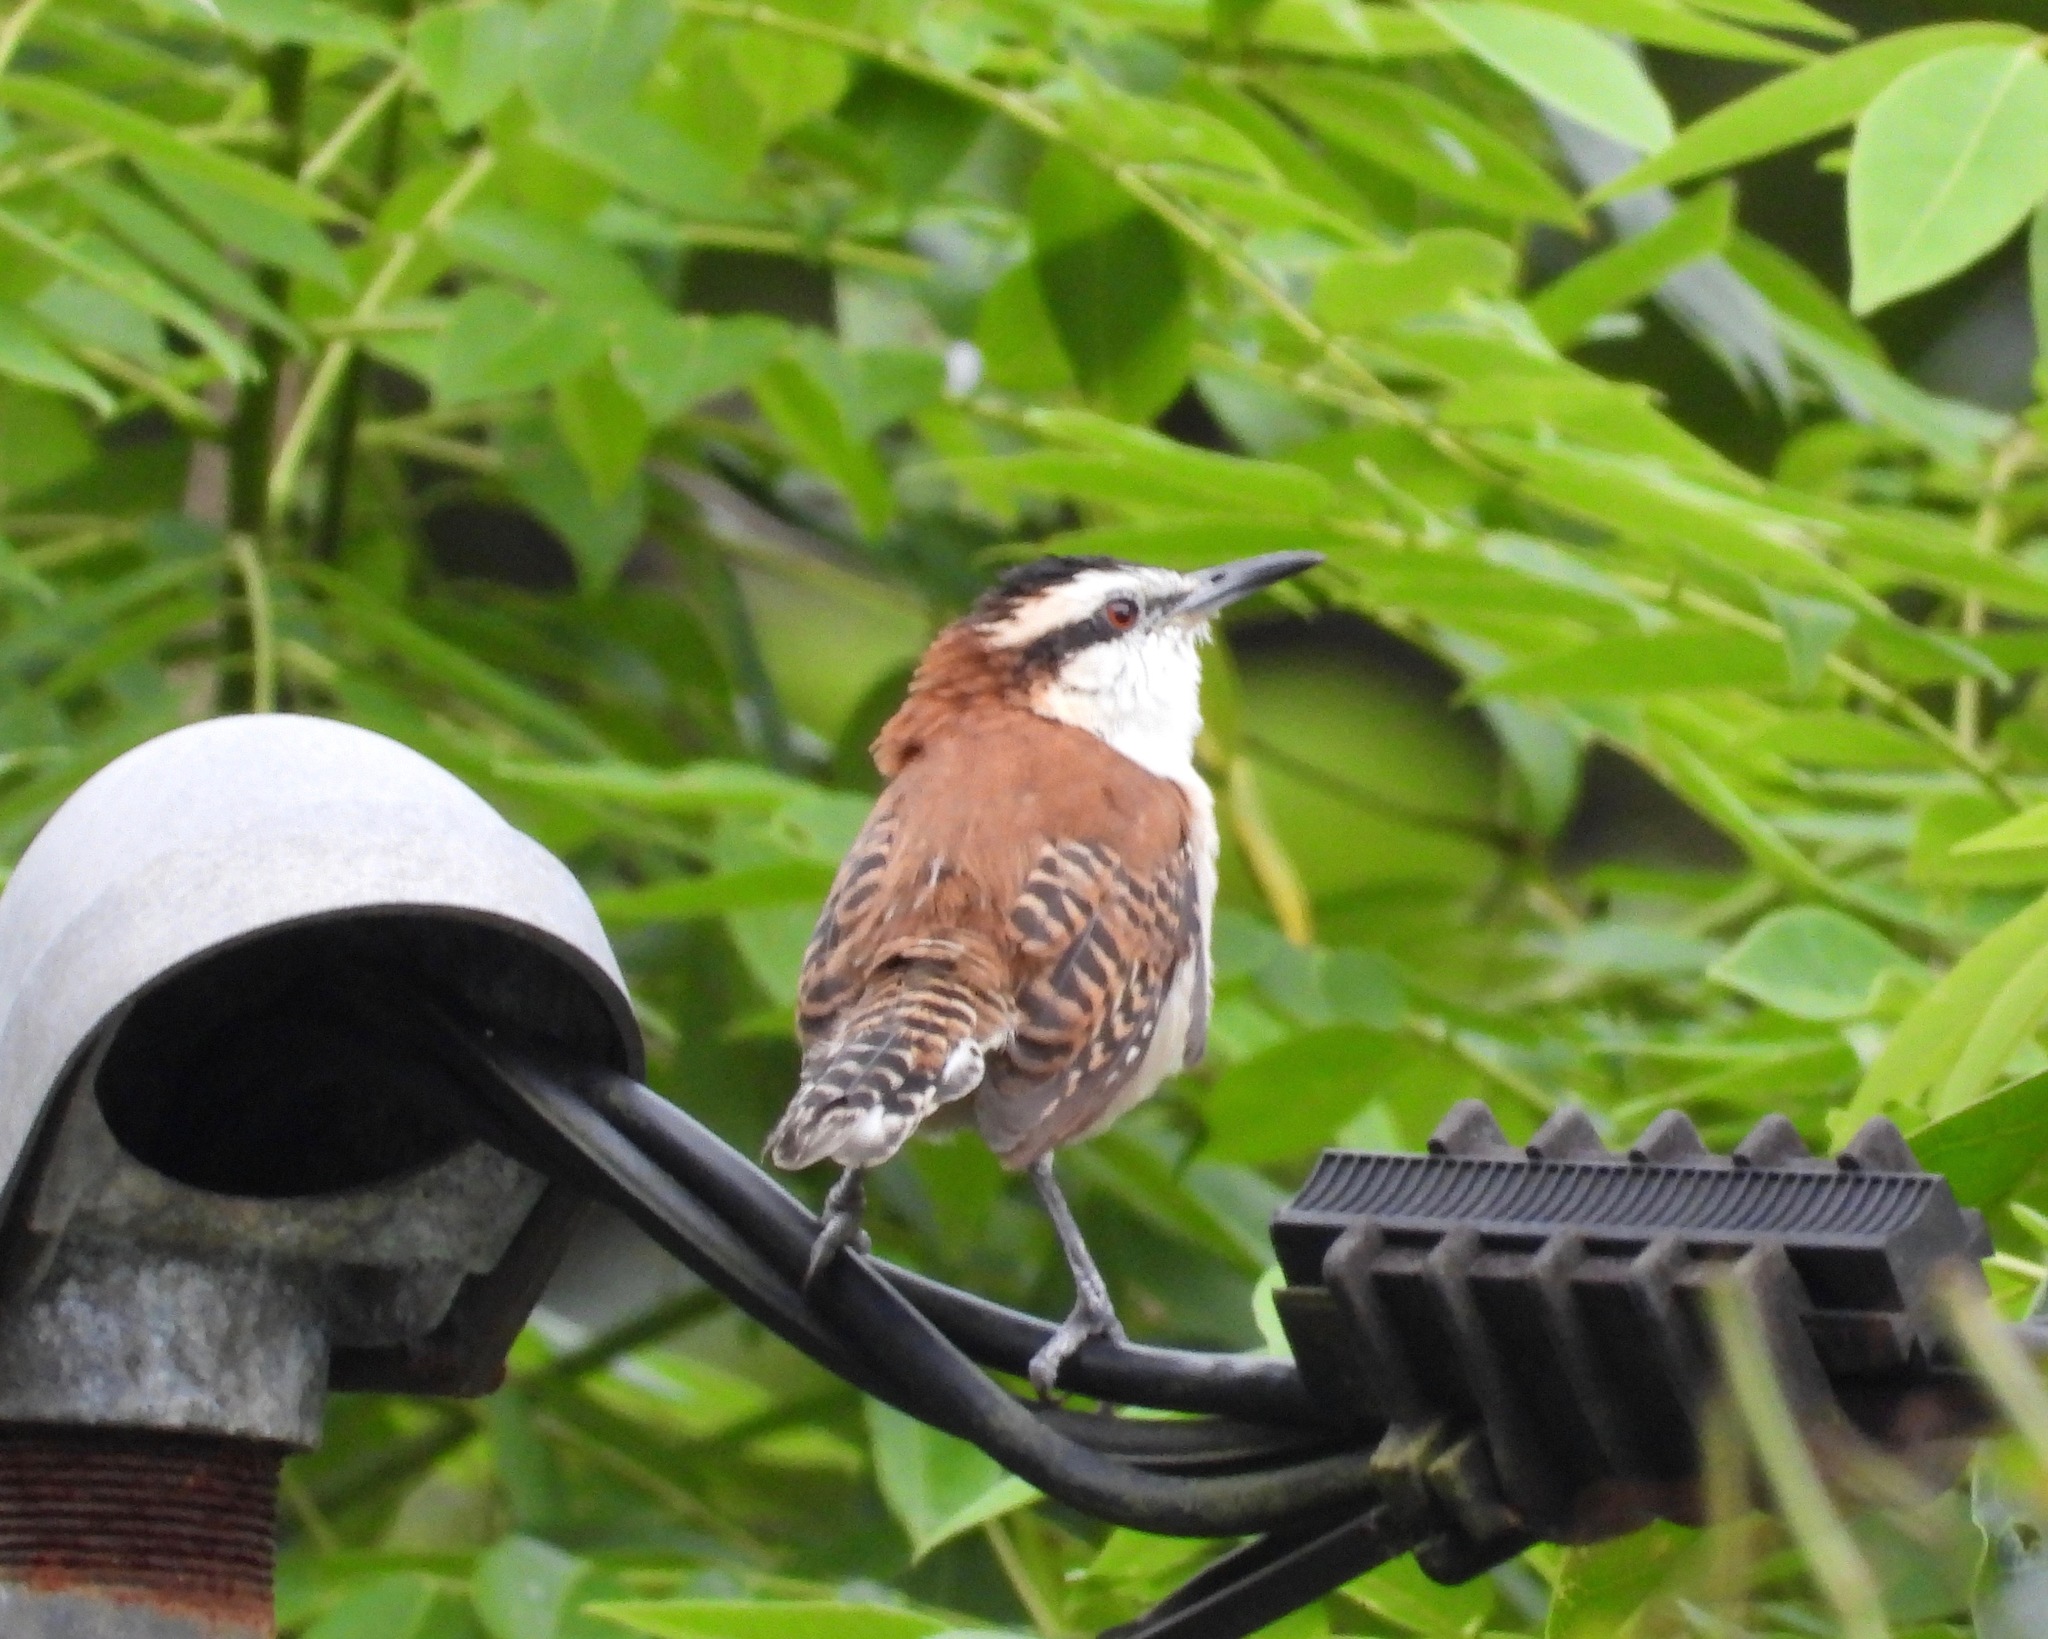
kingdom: Animalia
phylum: Chordata
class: Aves
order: Passeriformes
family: Troglodytidae
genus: Campylorhynchus
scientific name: Campylorhynchus rufinucha
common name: Rufous-naped wren
